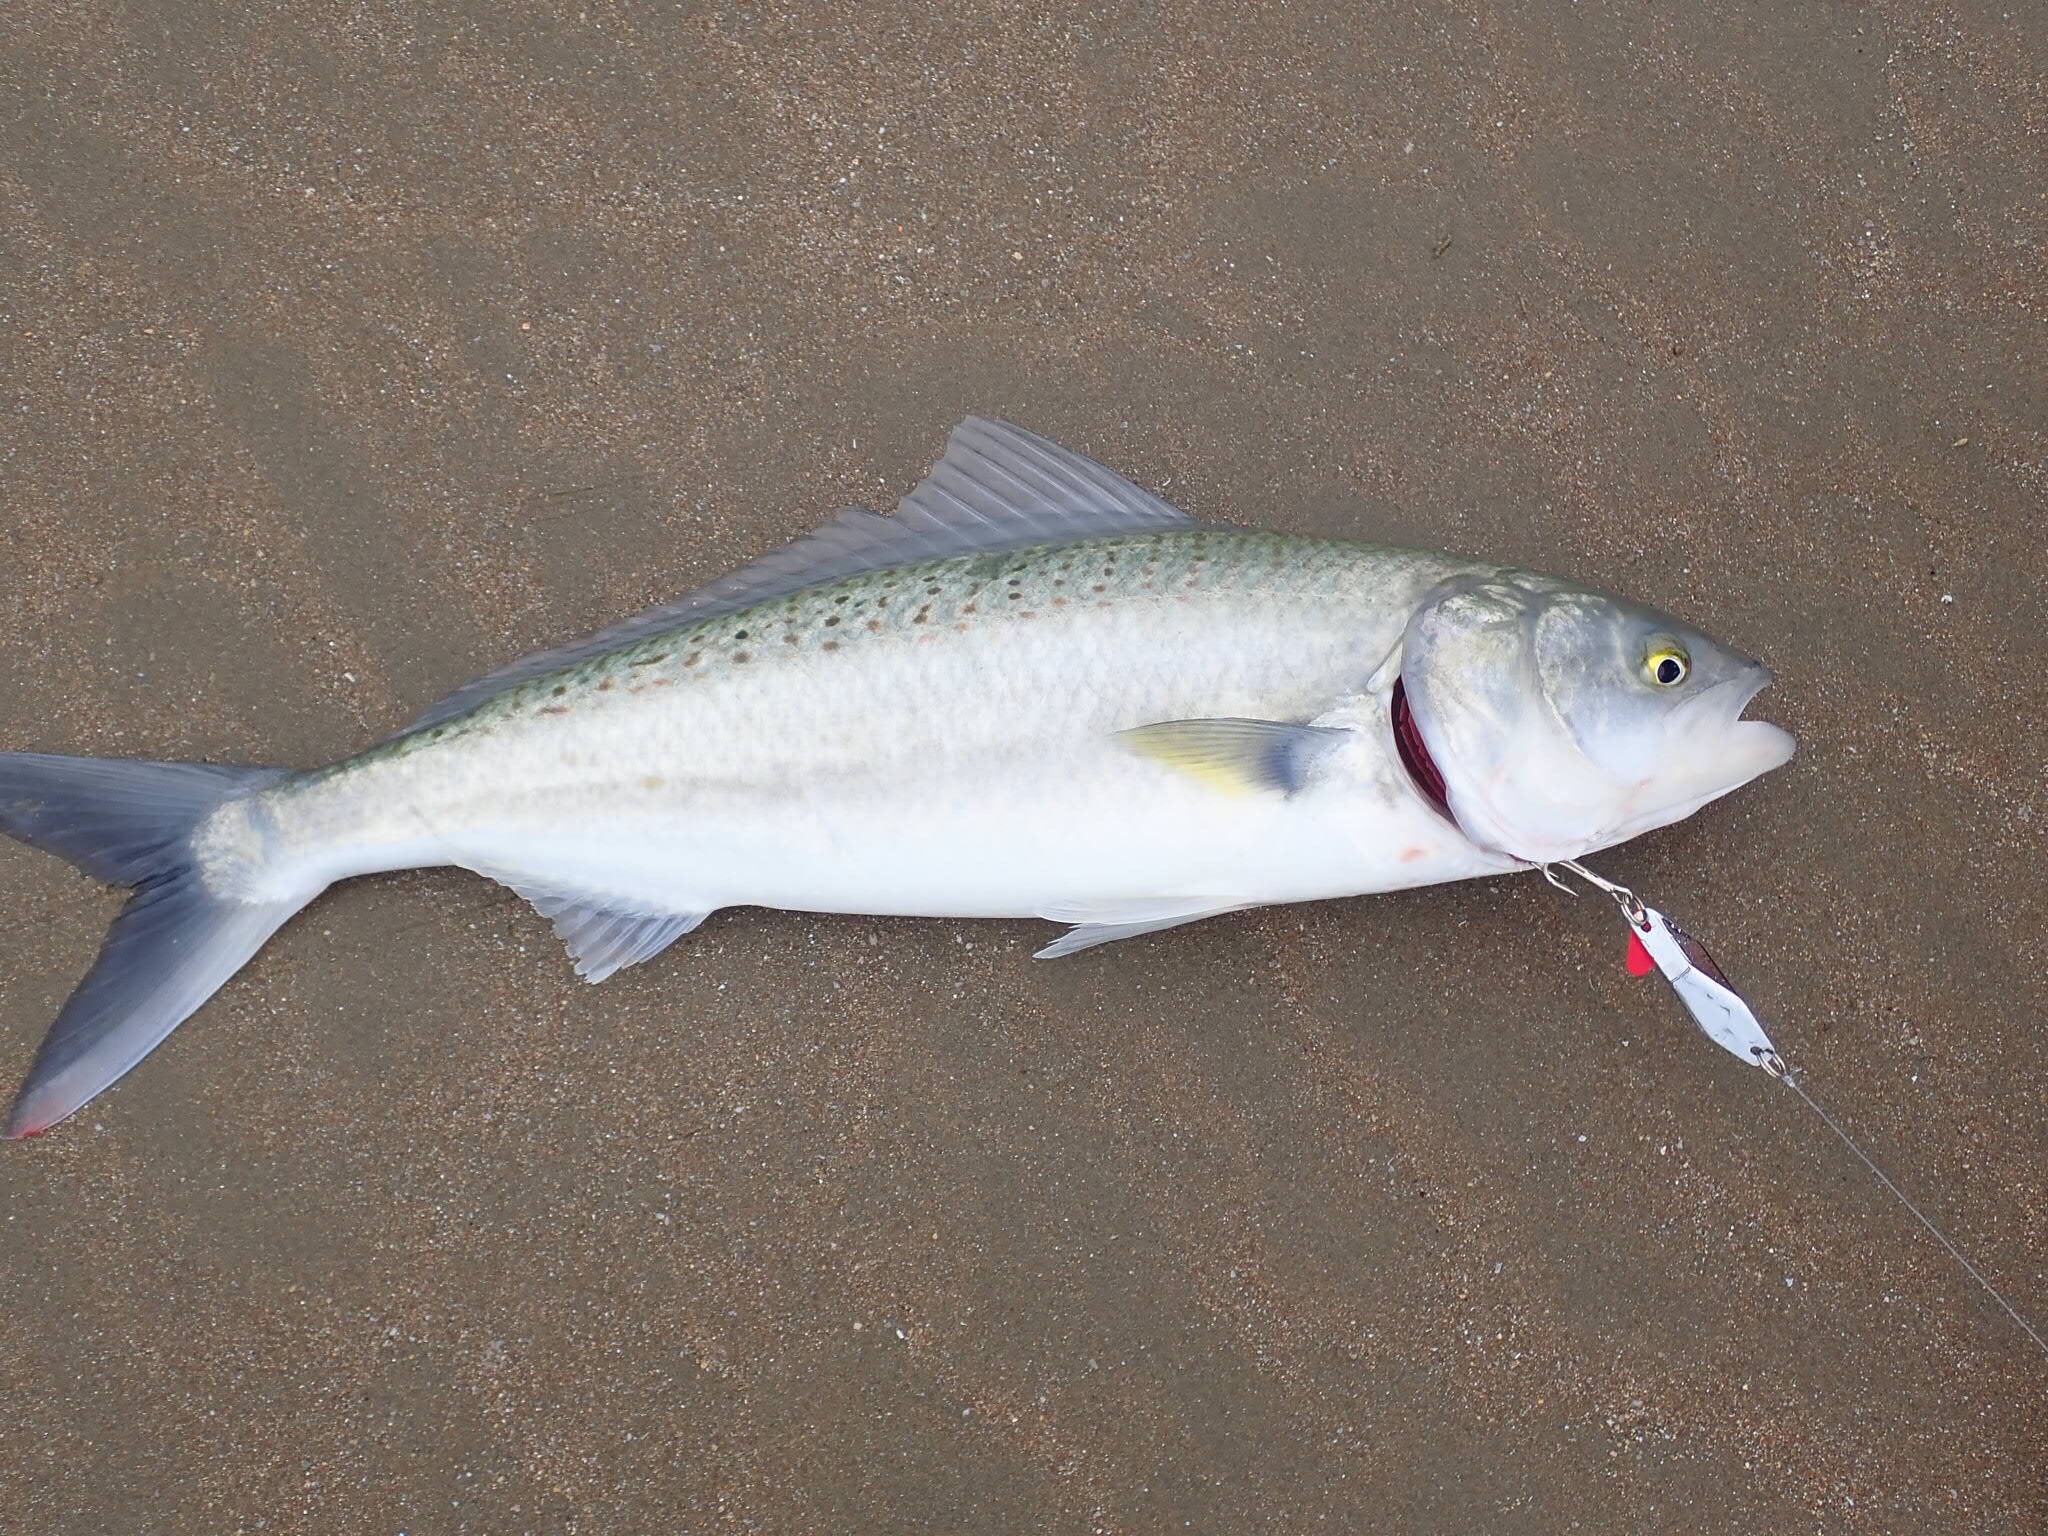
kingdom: Animalia
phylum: Chordata
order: Perciformes
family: Arripidae
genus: Arripis
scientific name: Arripis trutta
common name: Kahawai
